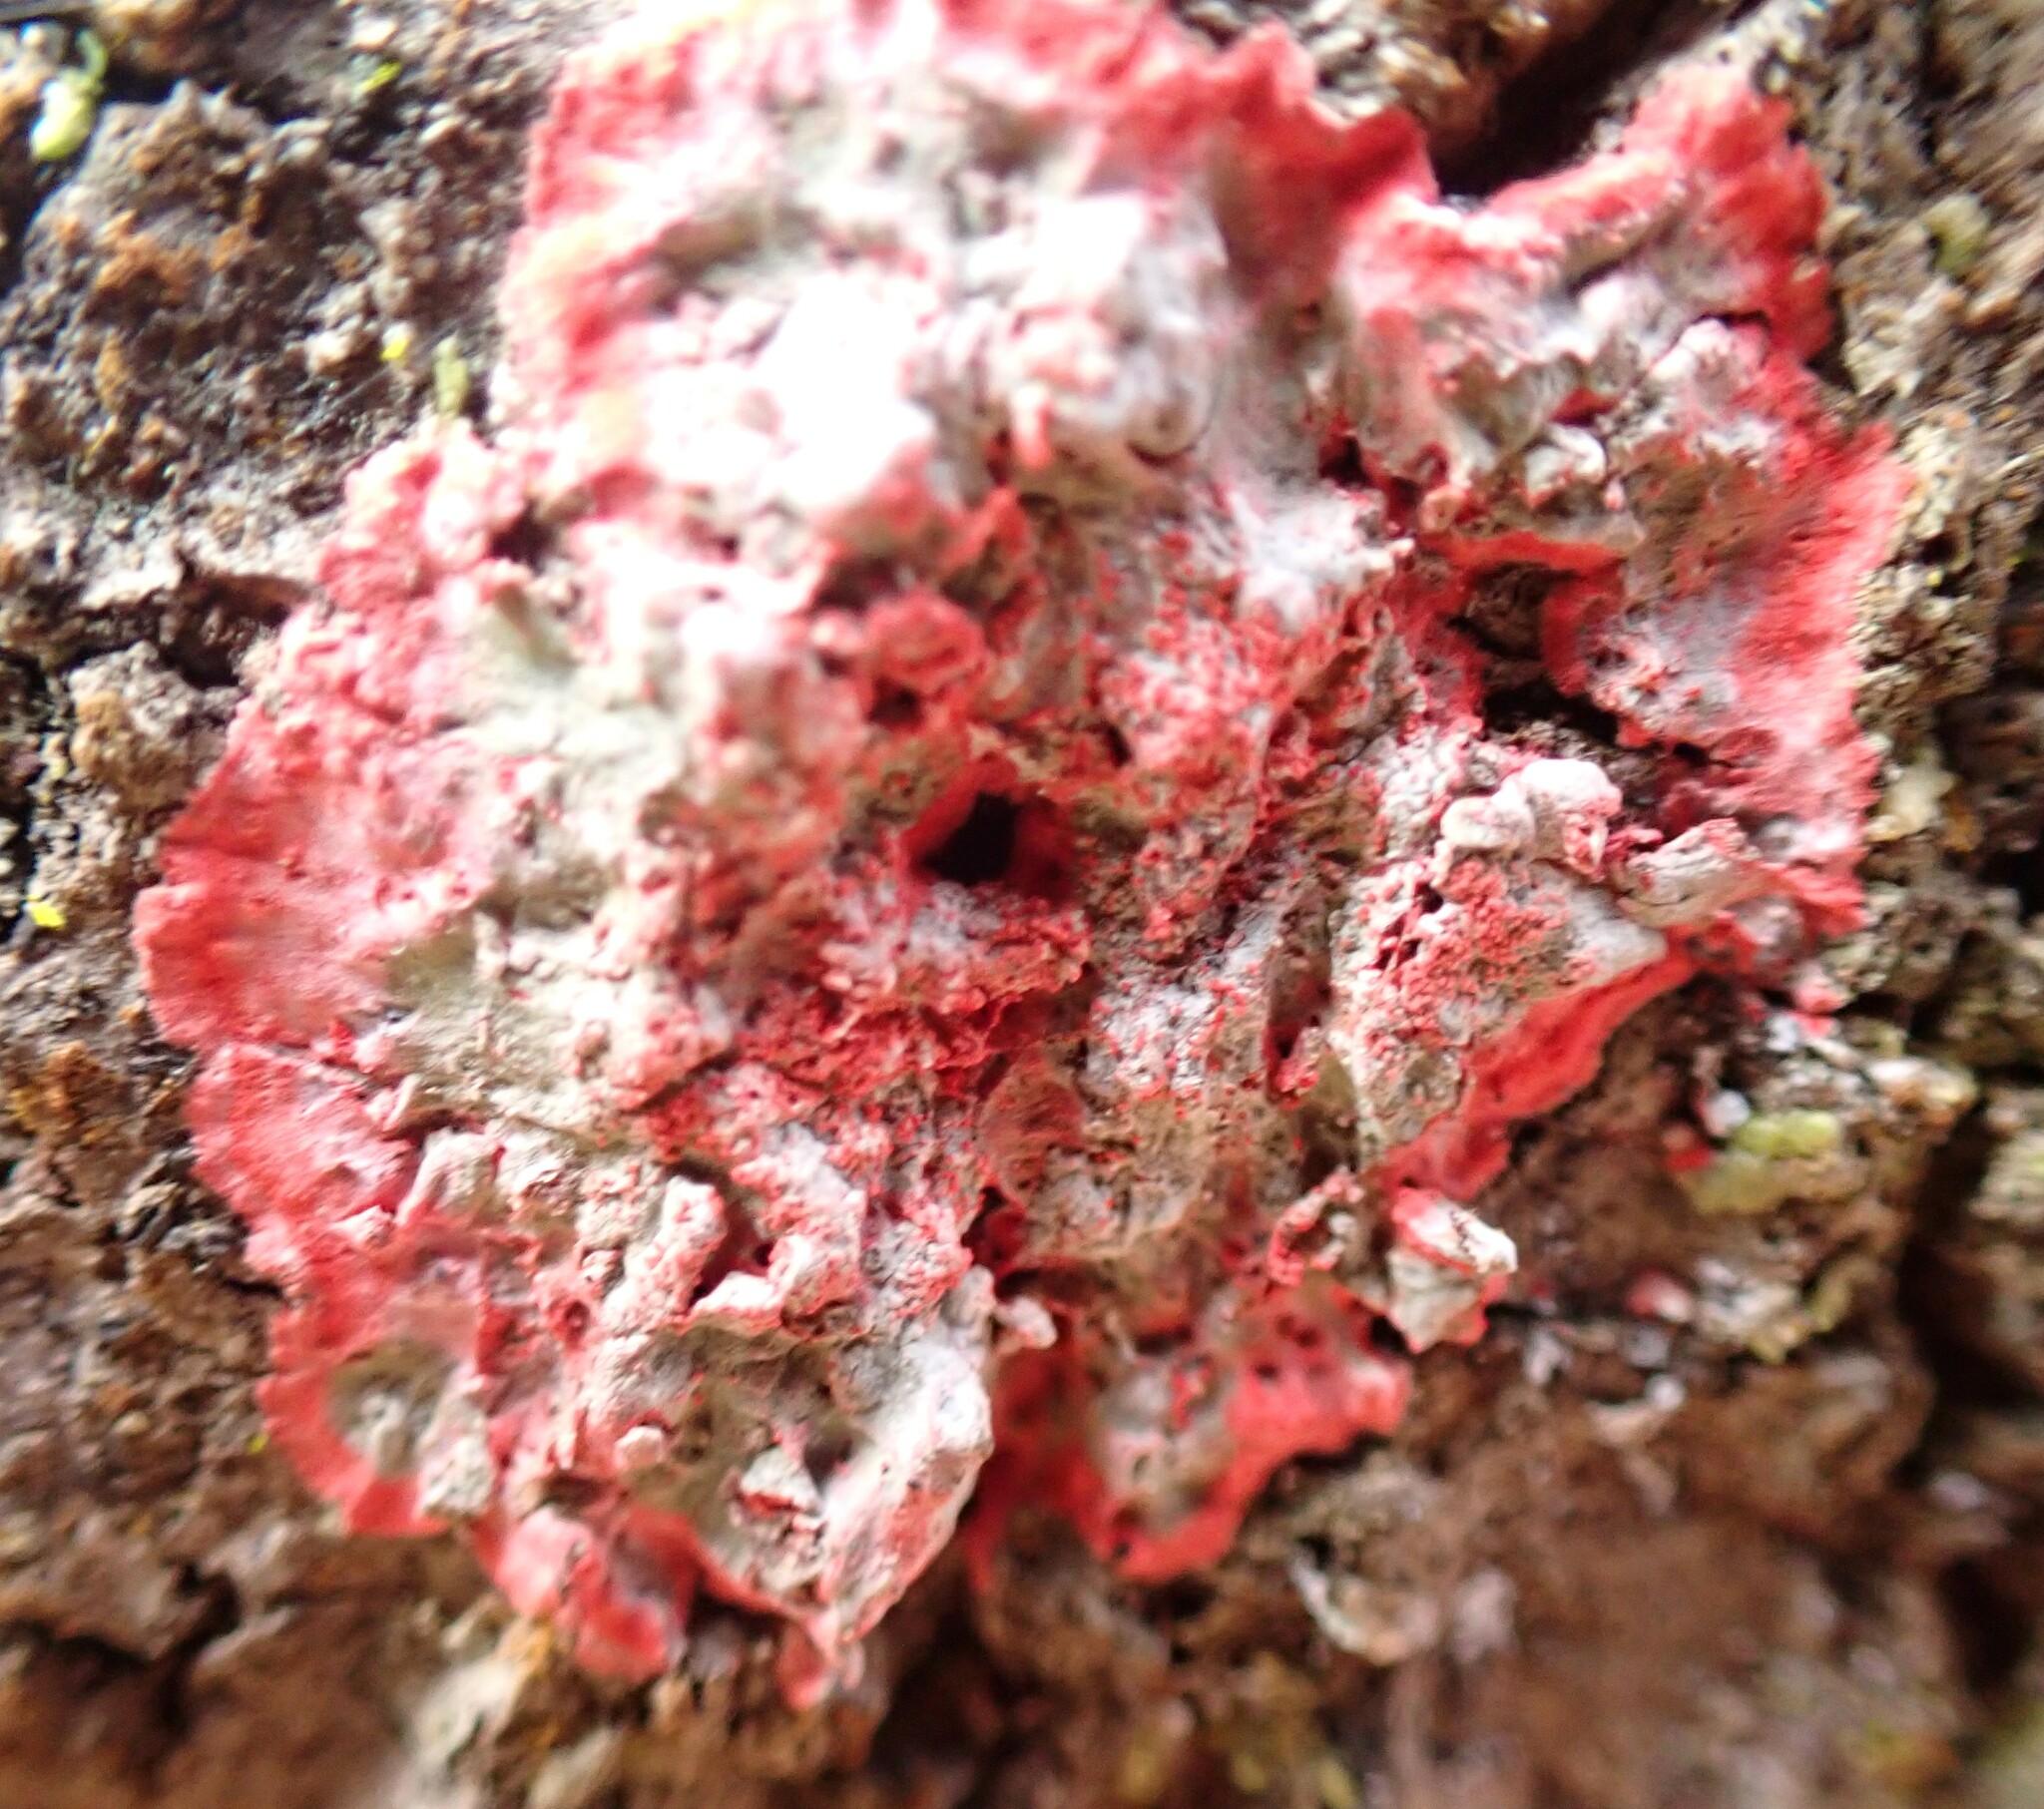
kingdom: Fungi
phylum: Ascomycota
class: Arthoniomycetes
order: Arthoniales
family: Arthoniaceae
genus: Herpothallon
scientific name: Herpothallon rubrocinctum
